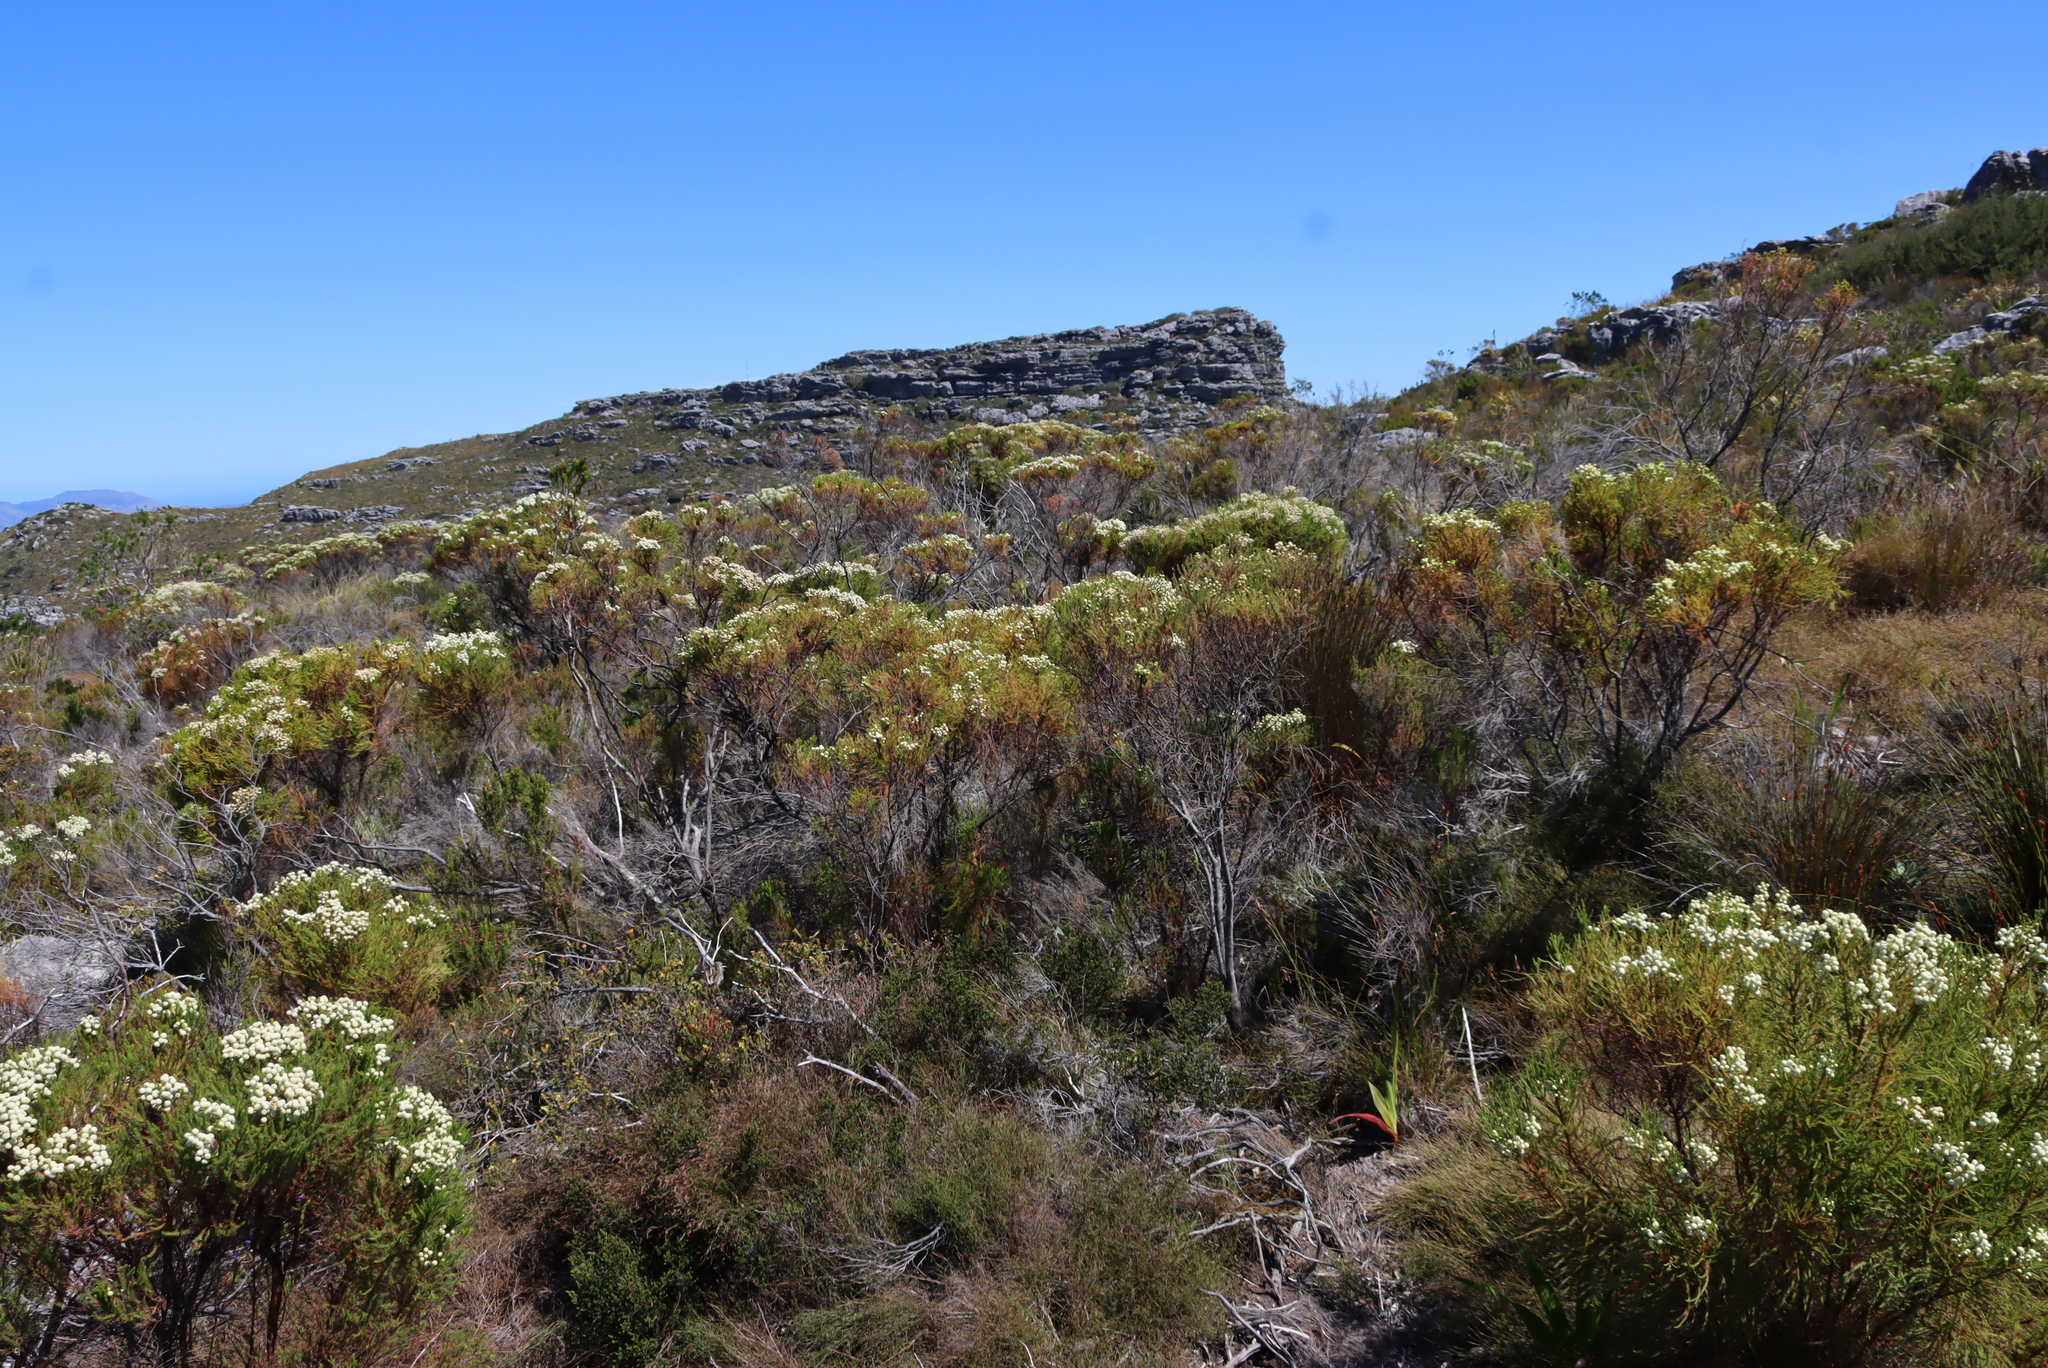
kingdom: Plantae
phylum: Tracheophyta
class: Magnoliopsida
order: Bruniales
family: Bruniaceae
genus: Berzelia
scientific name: Berzelia lanuginosa
